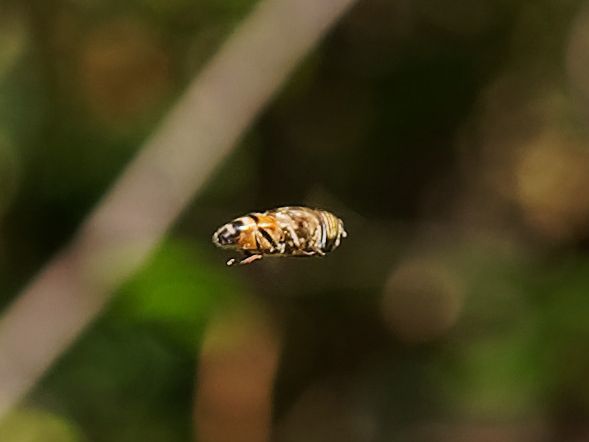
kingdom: Animalia
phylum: Arthropoda
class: Insecta
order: Diptera
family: Syrphidae
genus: Eristalinus
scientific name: Eristalinus taeniops
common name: Syrphid fly
